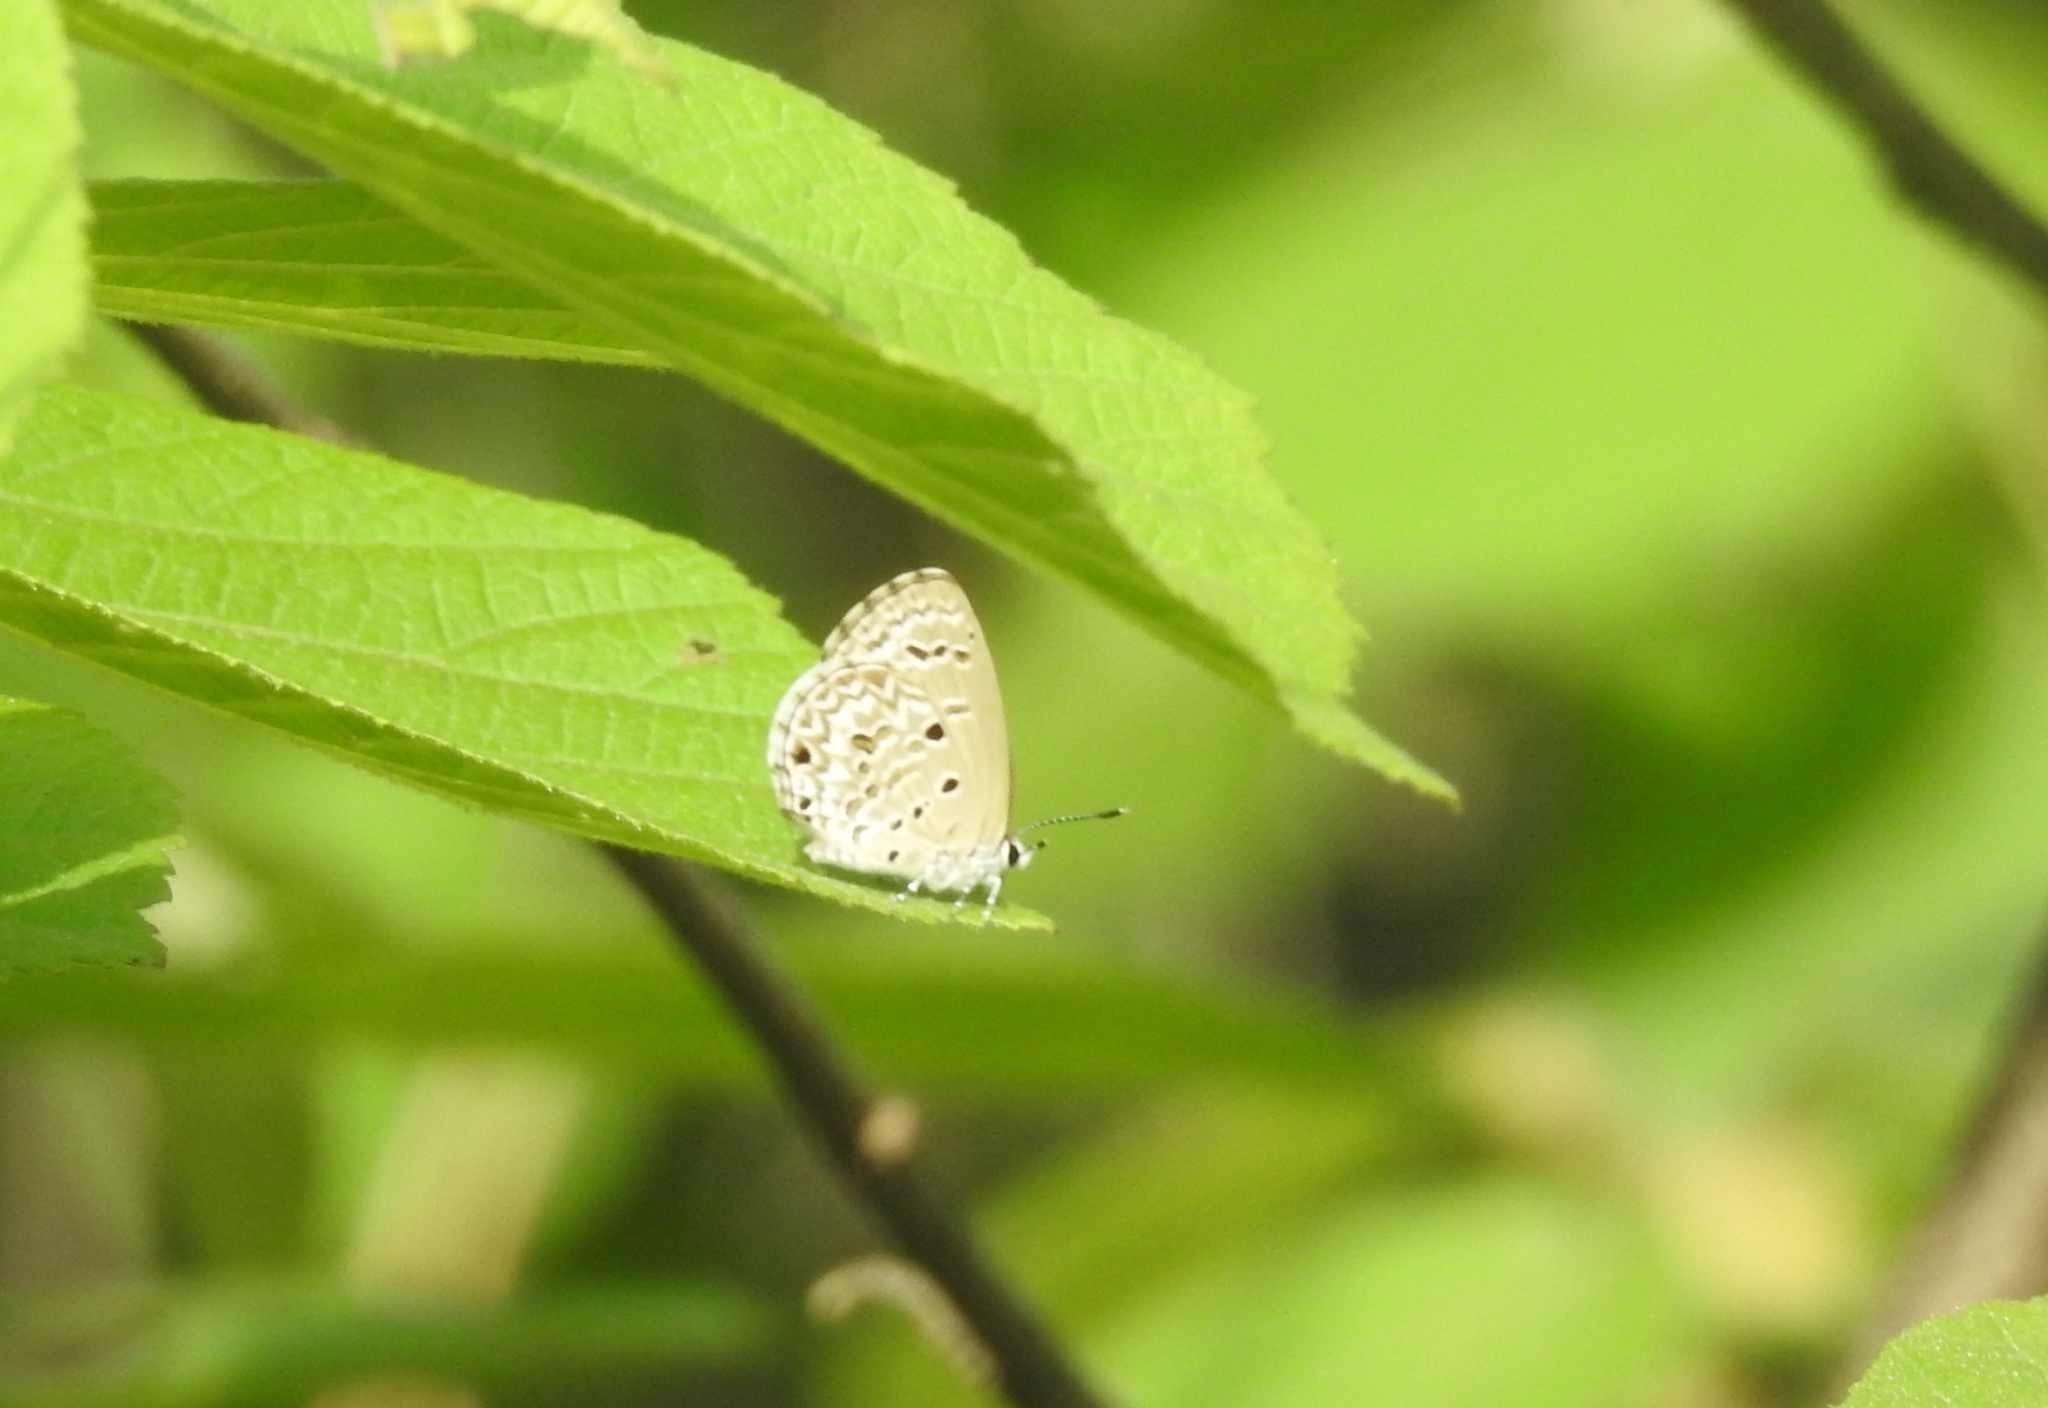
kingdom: Animalia
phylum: Arthropoda
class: Insecta
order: Lepidoptera
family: Lycaenidae
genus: Chilades
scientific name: Chilades laius
